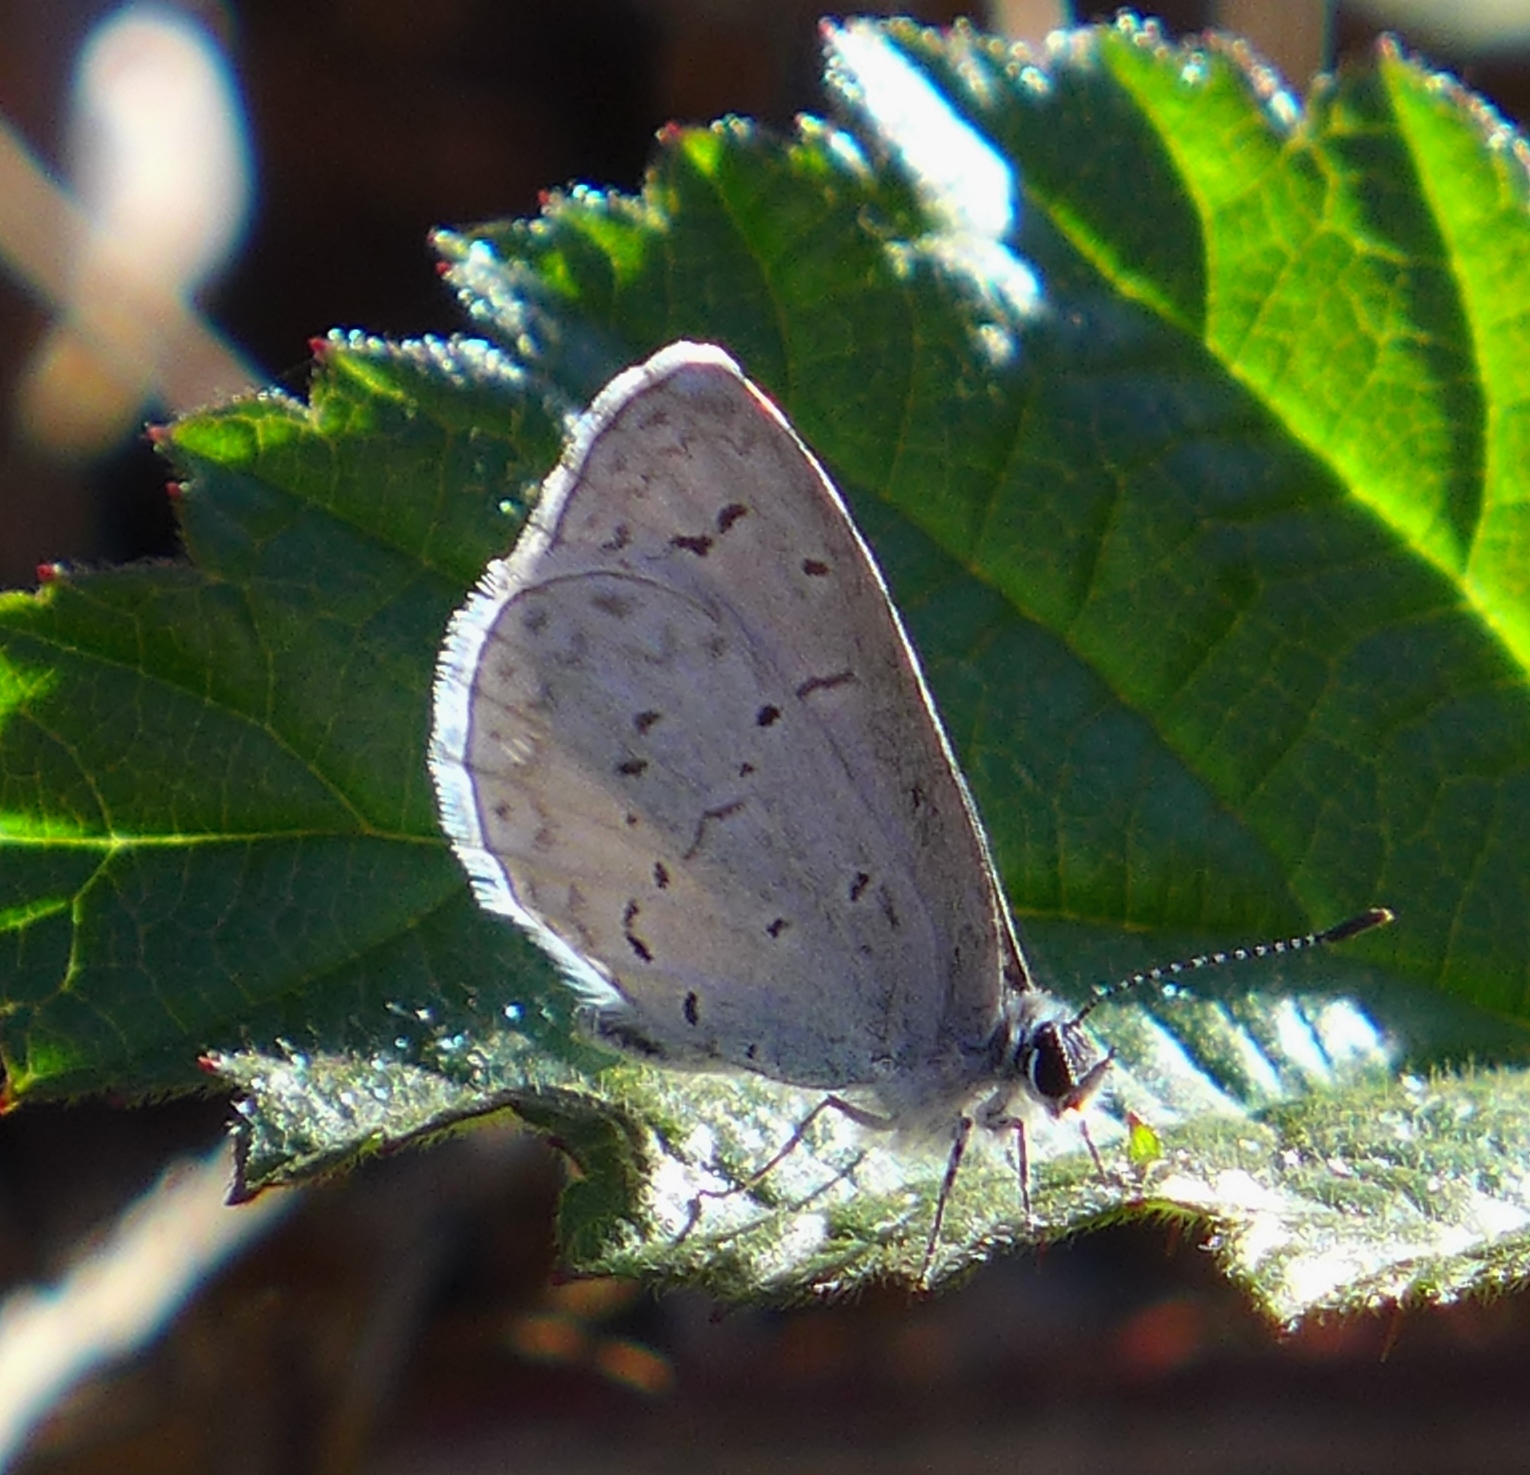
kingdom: Animalia
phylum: Arthropoda
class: Insecta
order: Lepidoptera
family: Lycaenidae
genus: Celastrina
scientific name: Celastrina ladon
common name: Spring azure
